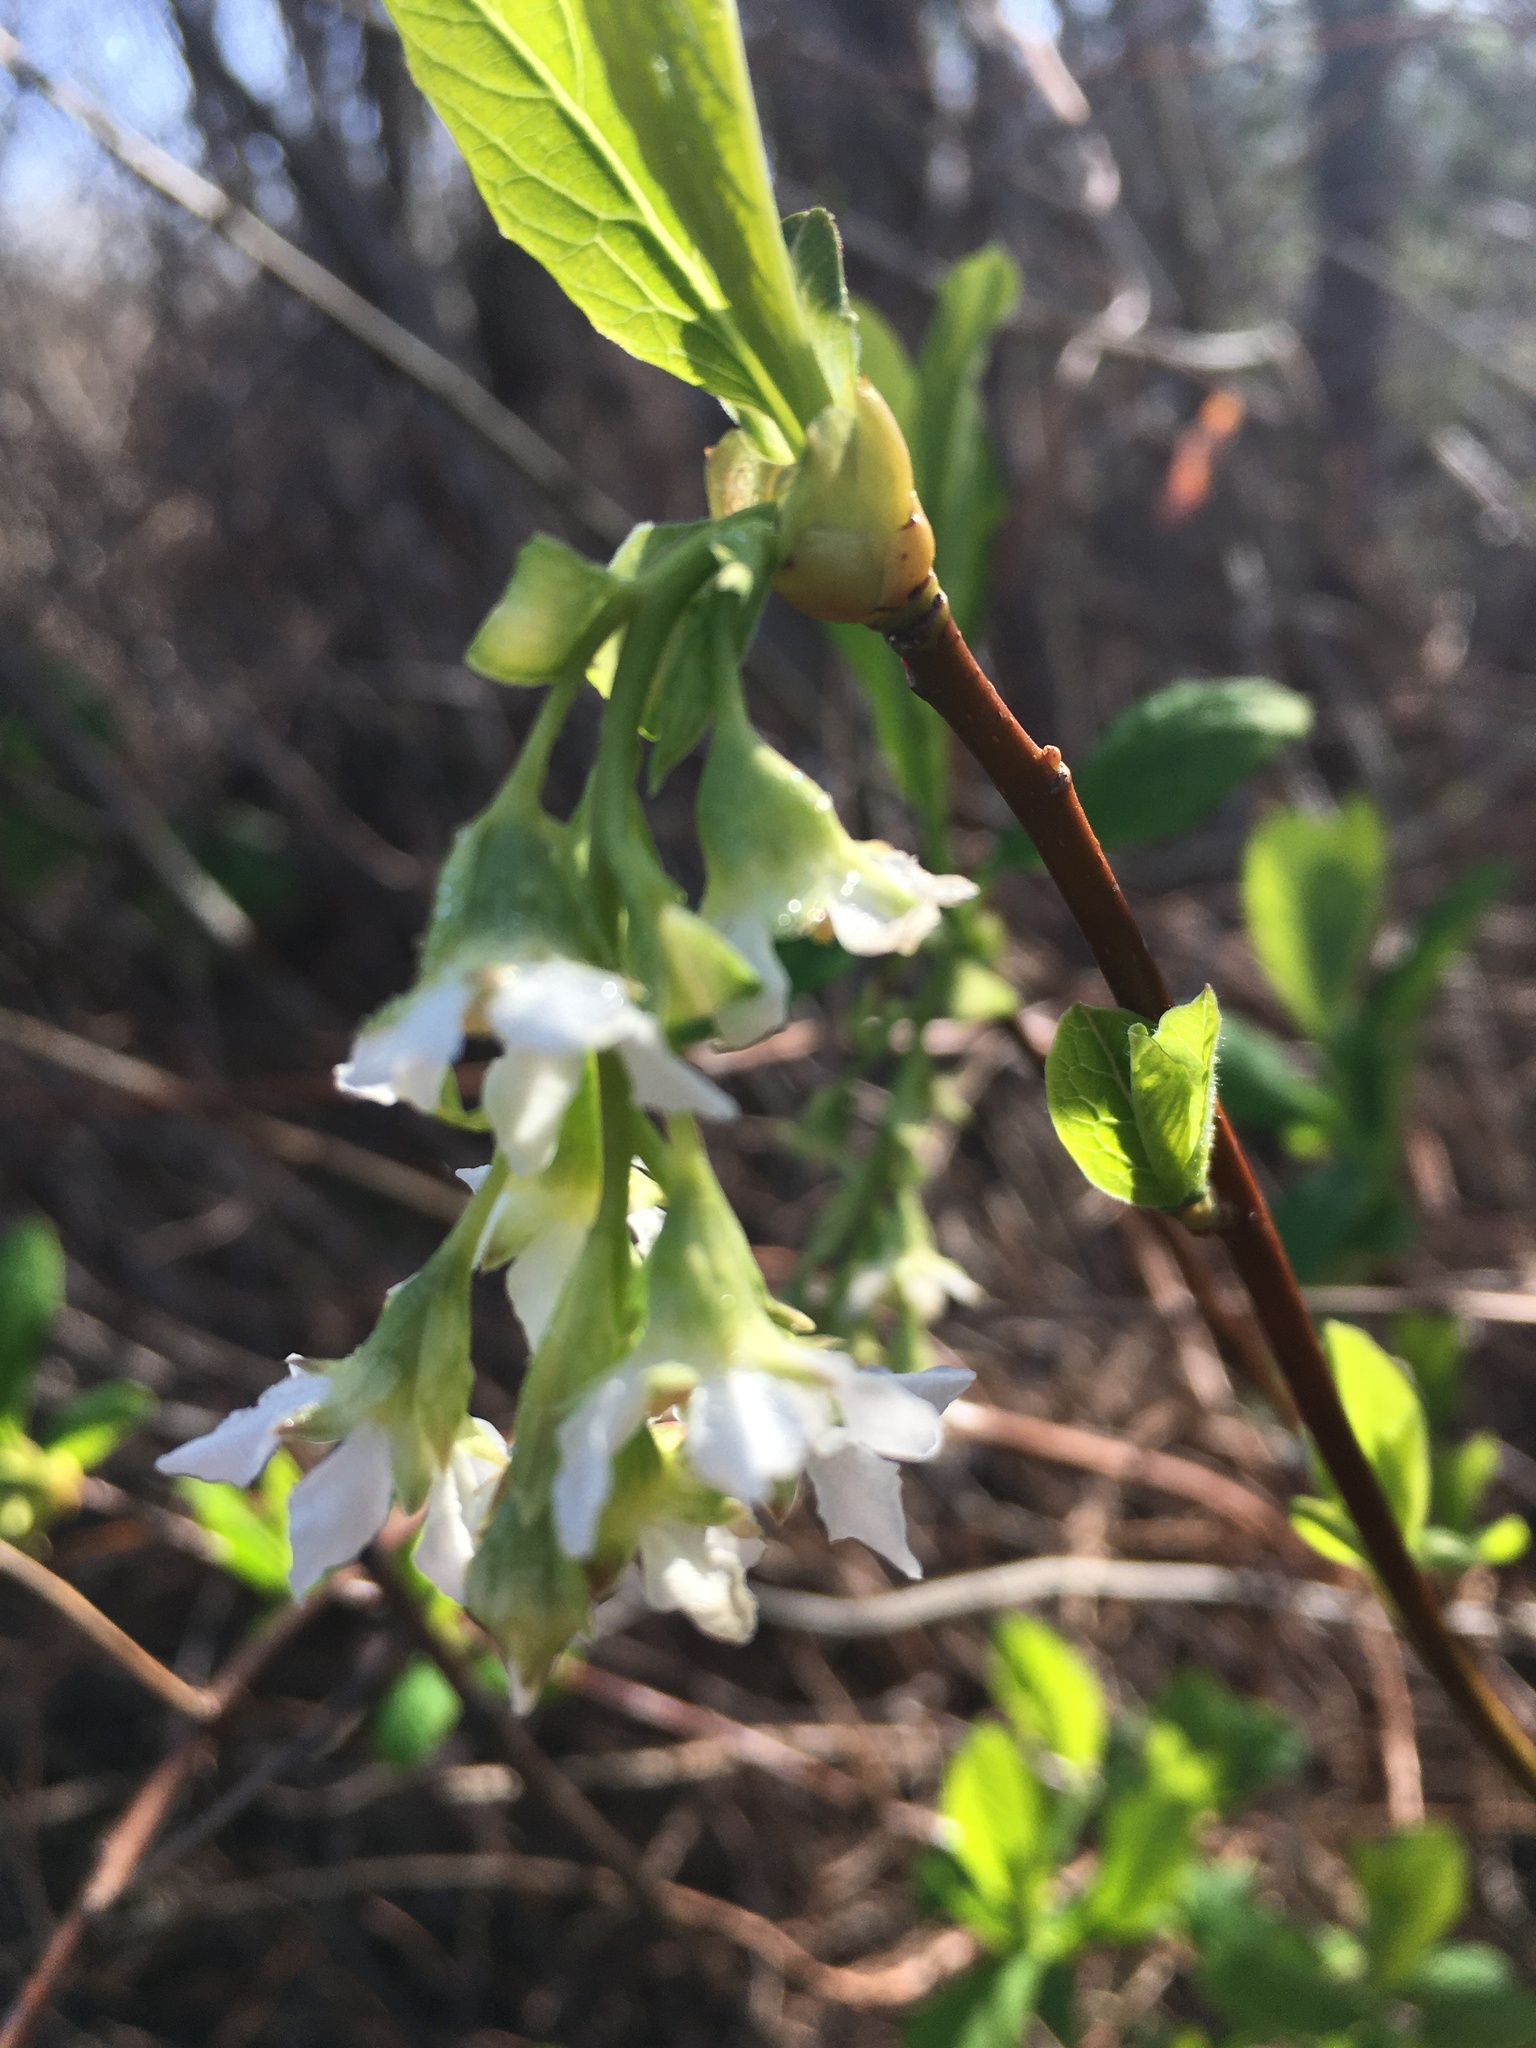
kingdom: Plantae
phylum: Tracheophyta
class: Magnoliopsida
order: Rosales
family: Rosaceae
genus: Oemleria
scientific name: Oemleria cerasiformis
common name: Osoberry
